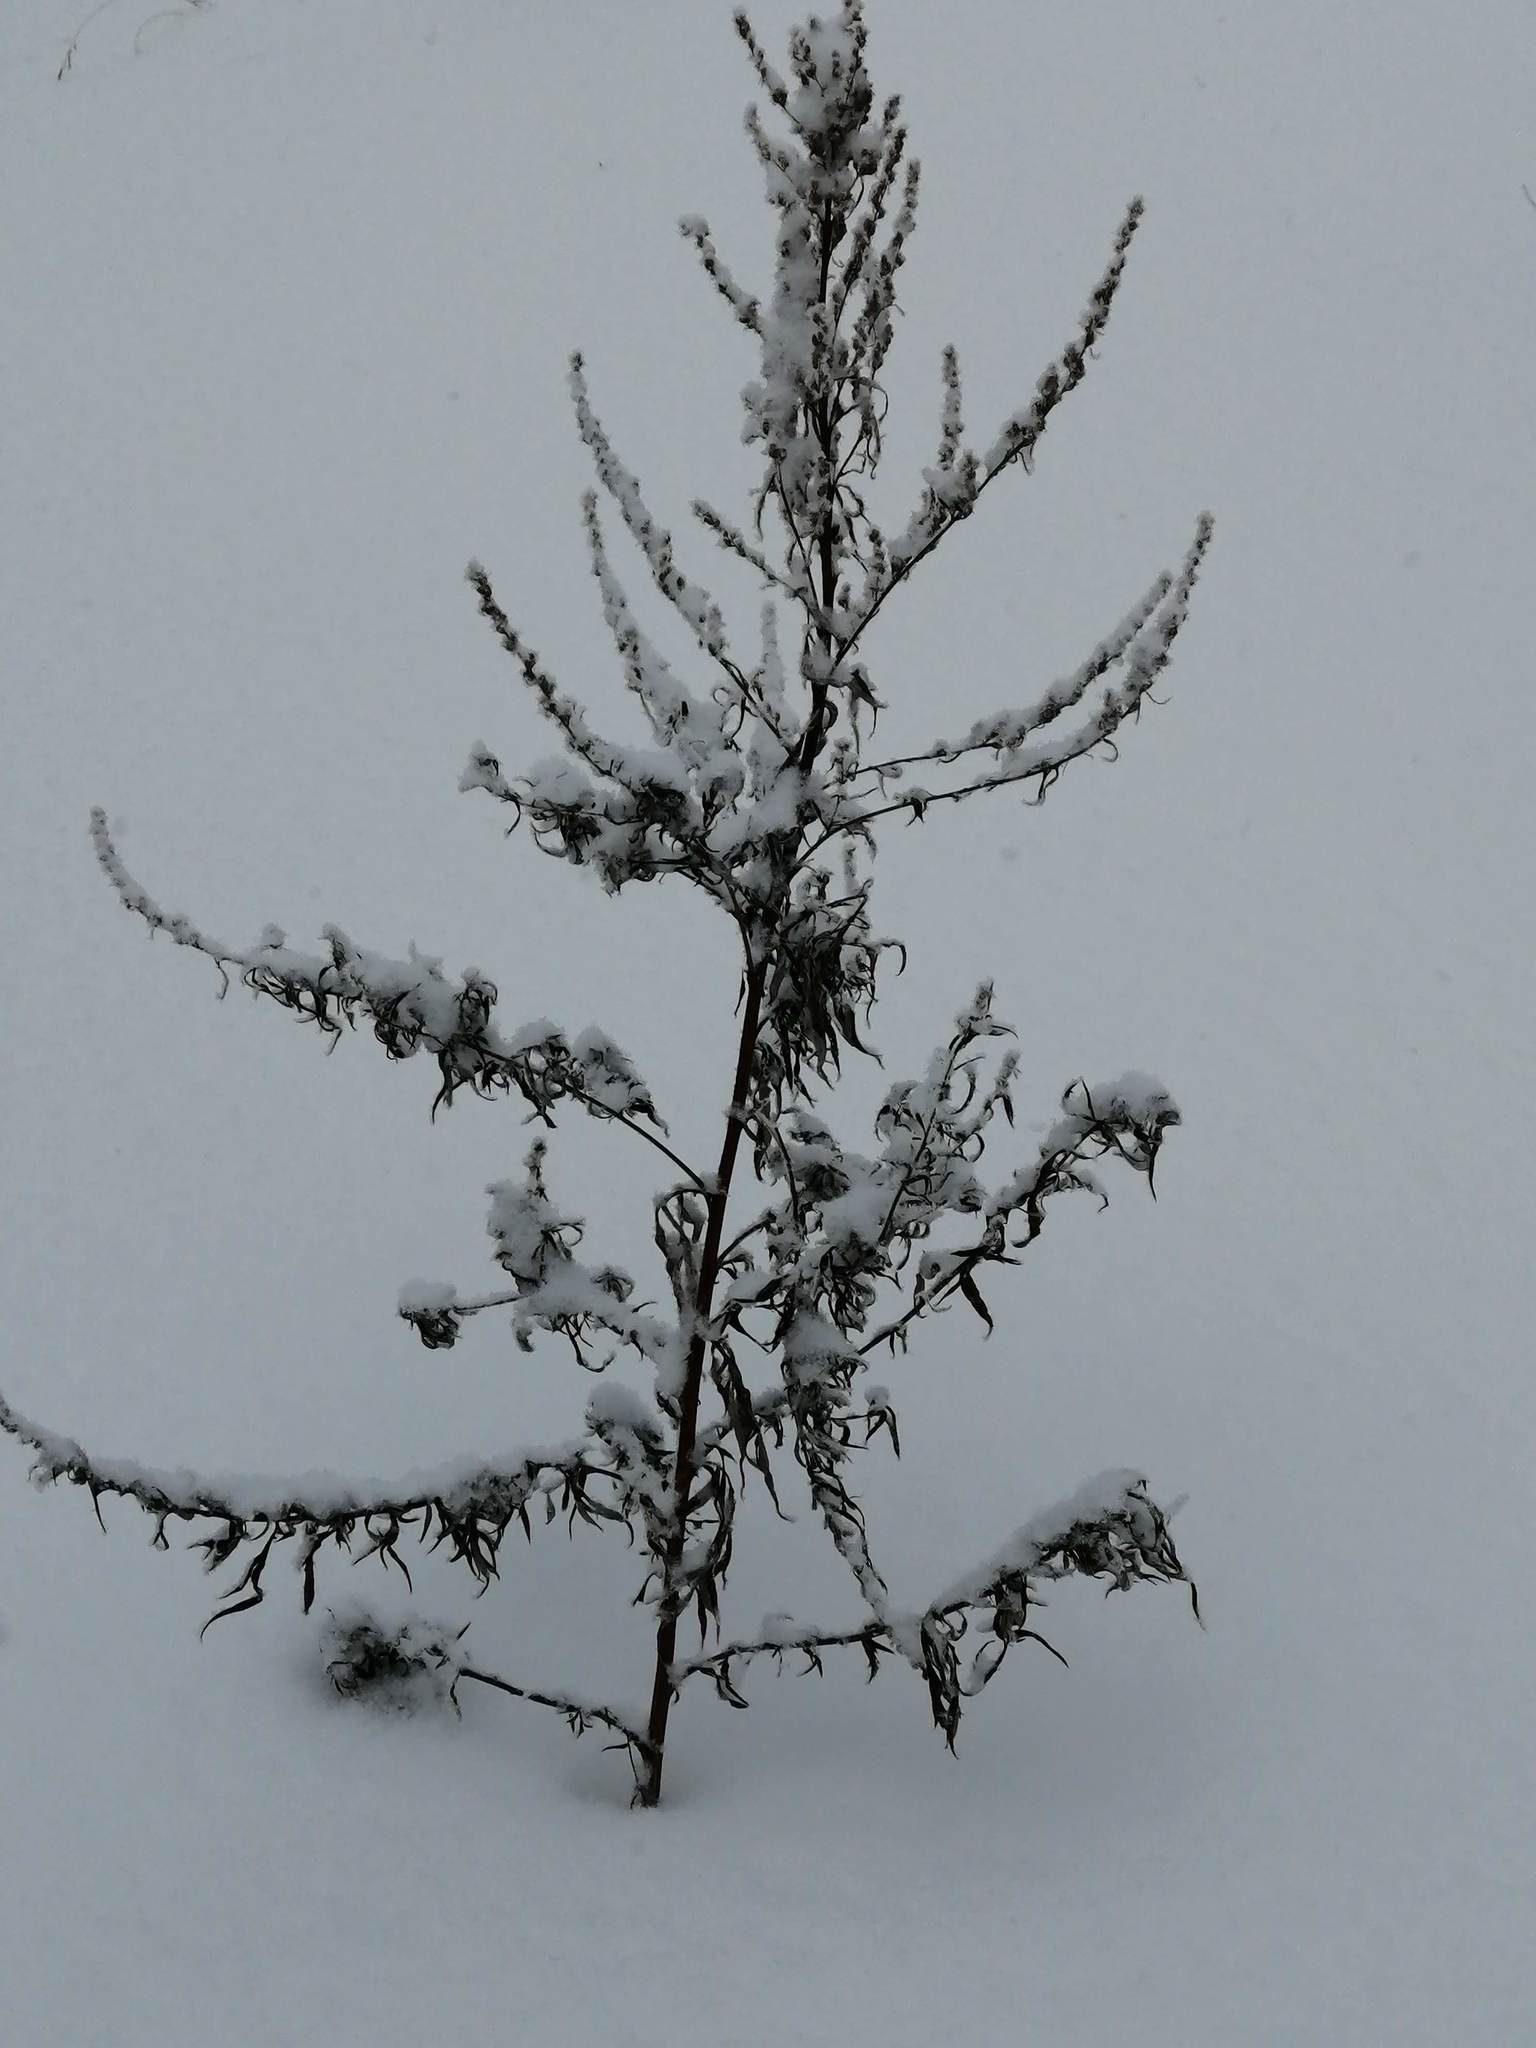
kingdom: Plantae
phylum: Tracheophyta
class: Magnoliopsida
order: Asterales
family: Asteraceae
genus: Artemisia
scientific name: Artemisia vulgaris
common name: Mugwort
